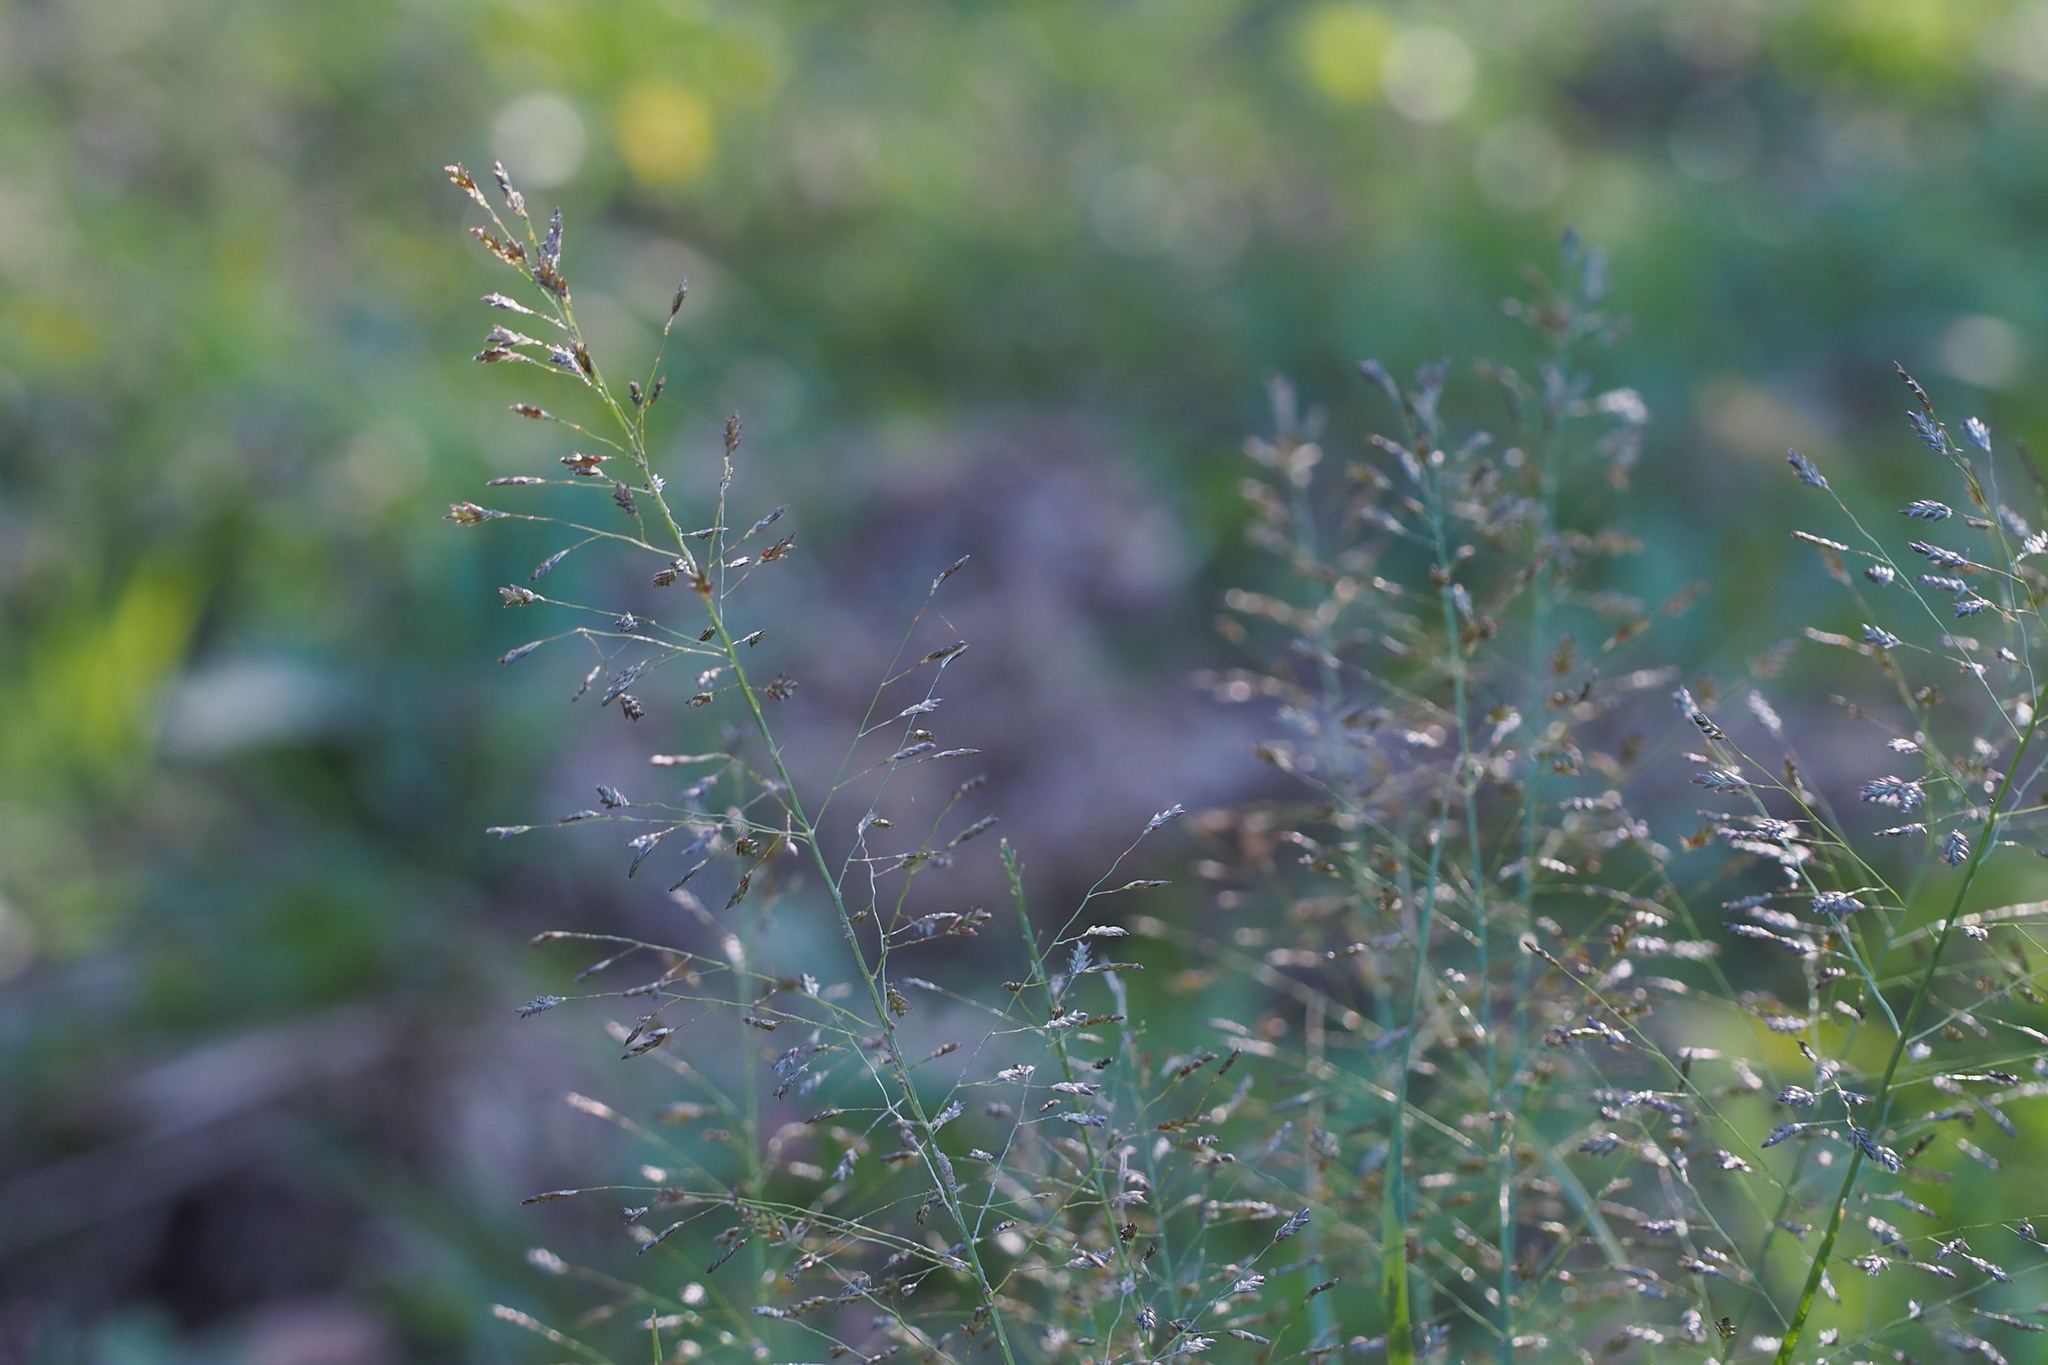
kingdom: Plantae
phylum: Tracheophyta
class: Liliopsida
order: Poales
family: Poaceae
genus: Eragrostis
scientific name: Eragrostis ferruginea
